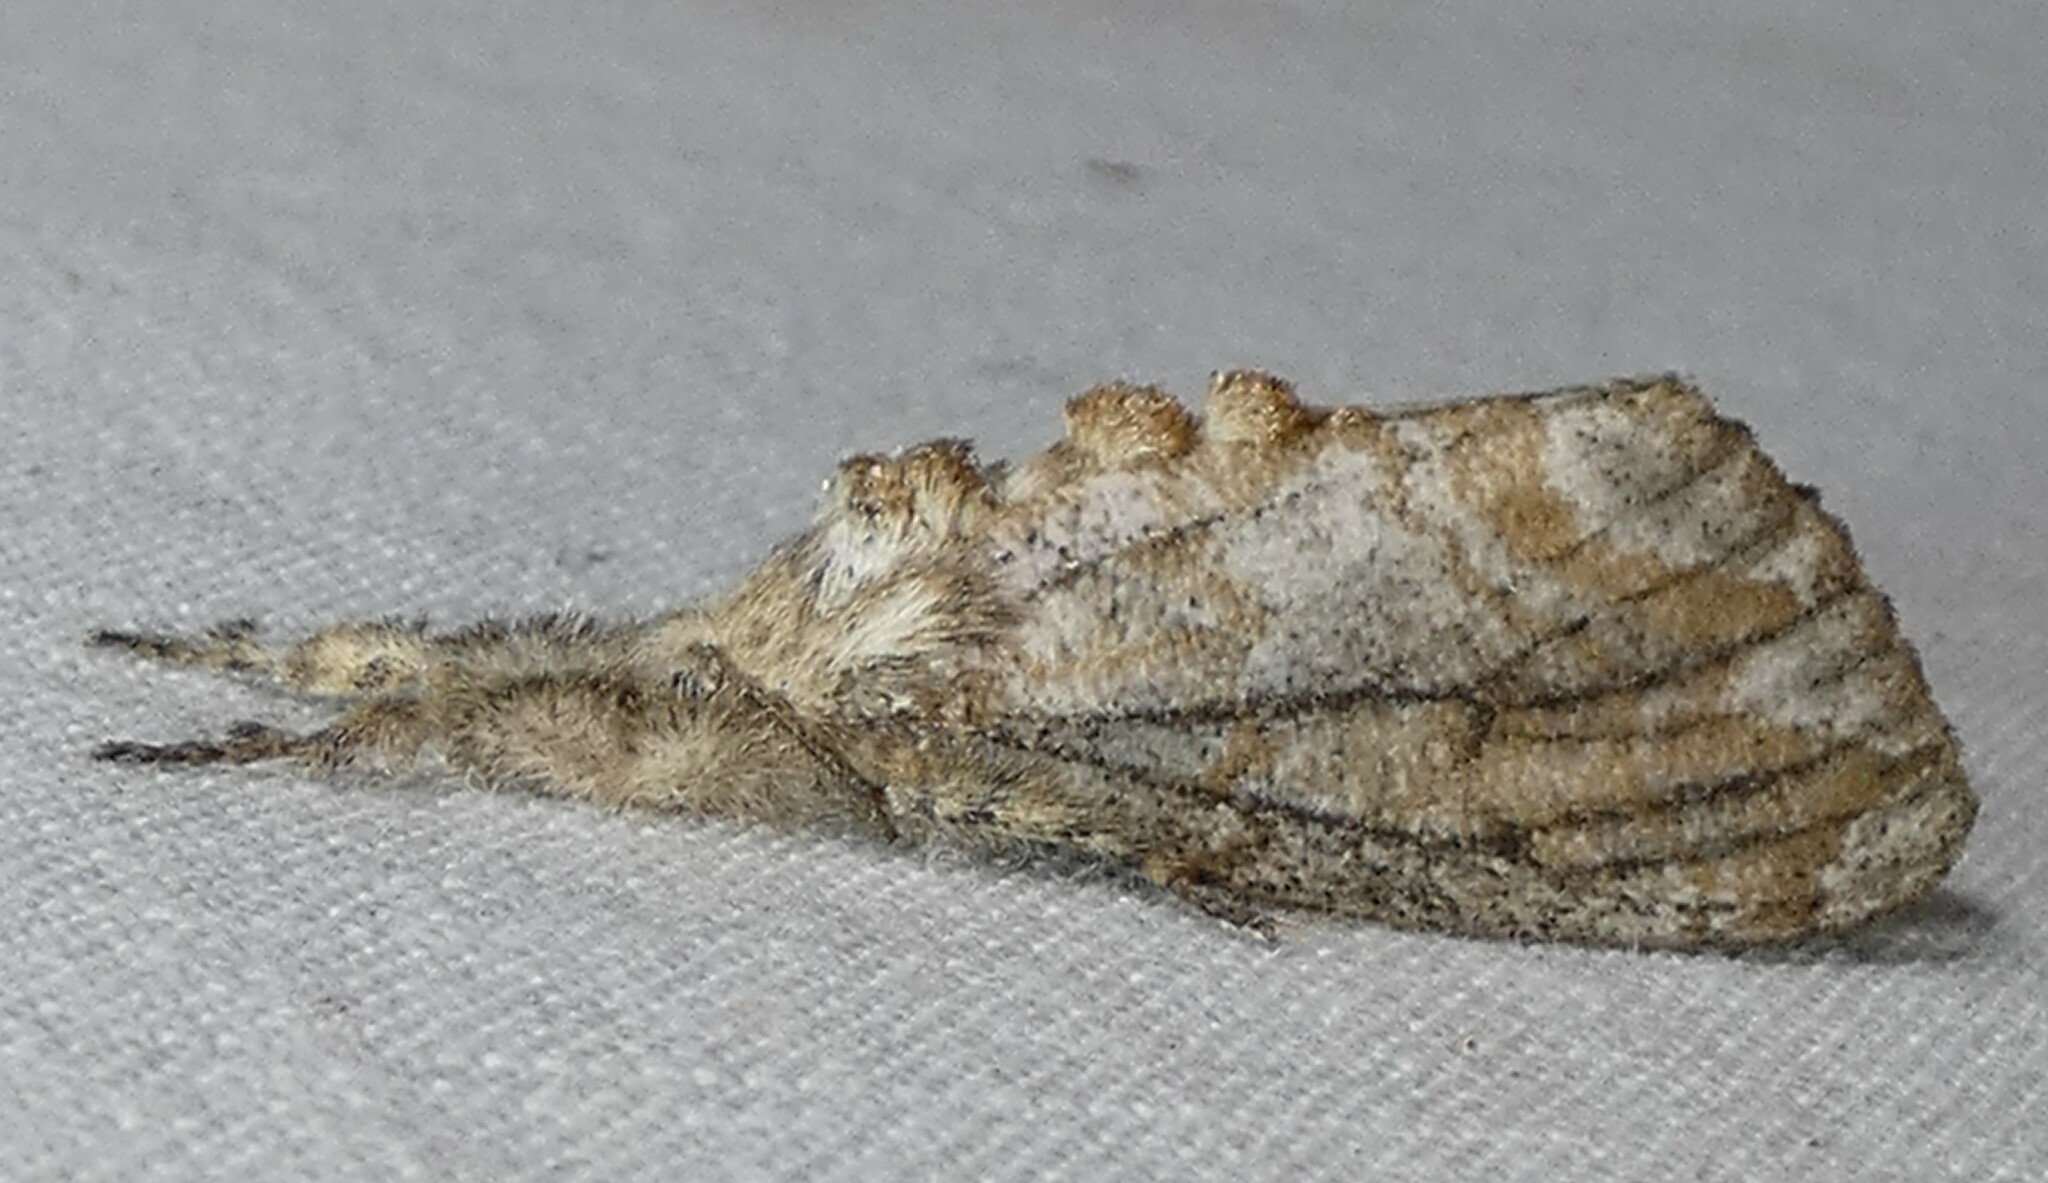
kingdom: Animalia
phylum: Arthropoda
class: Insecta
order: Lepidoptera
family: Erebidae
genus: Dasychira
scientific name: Dasychira atrivenosa
